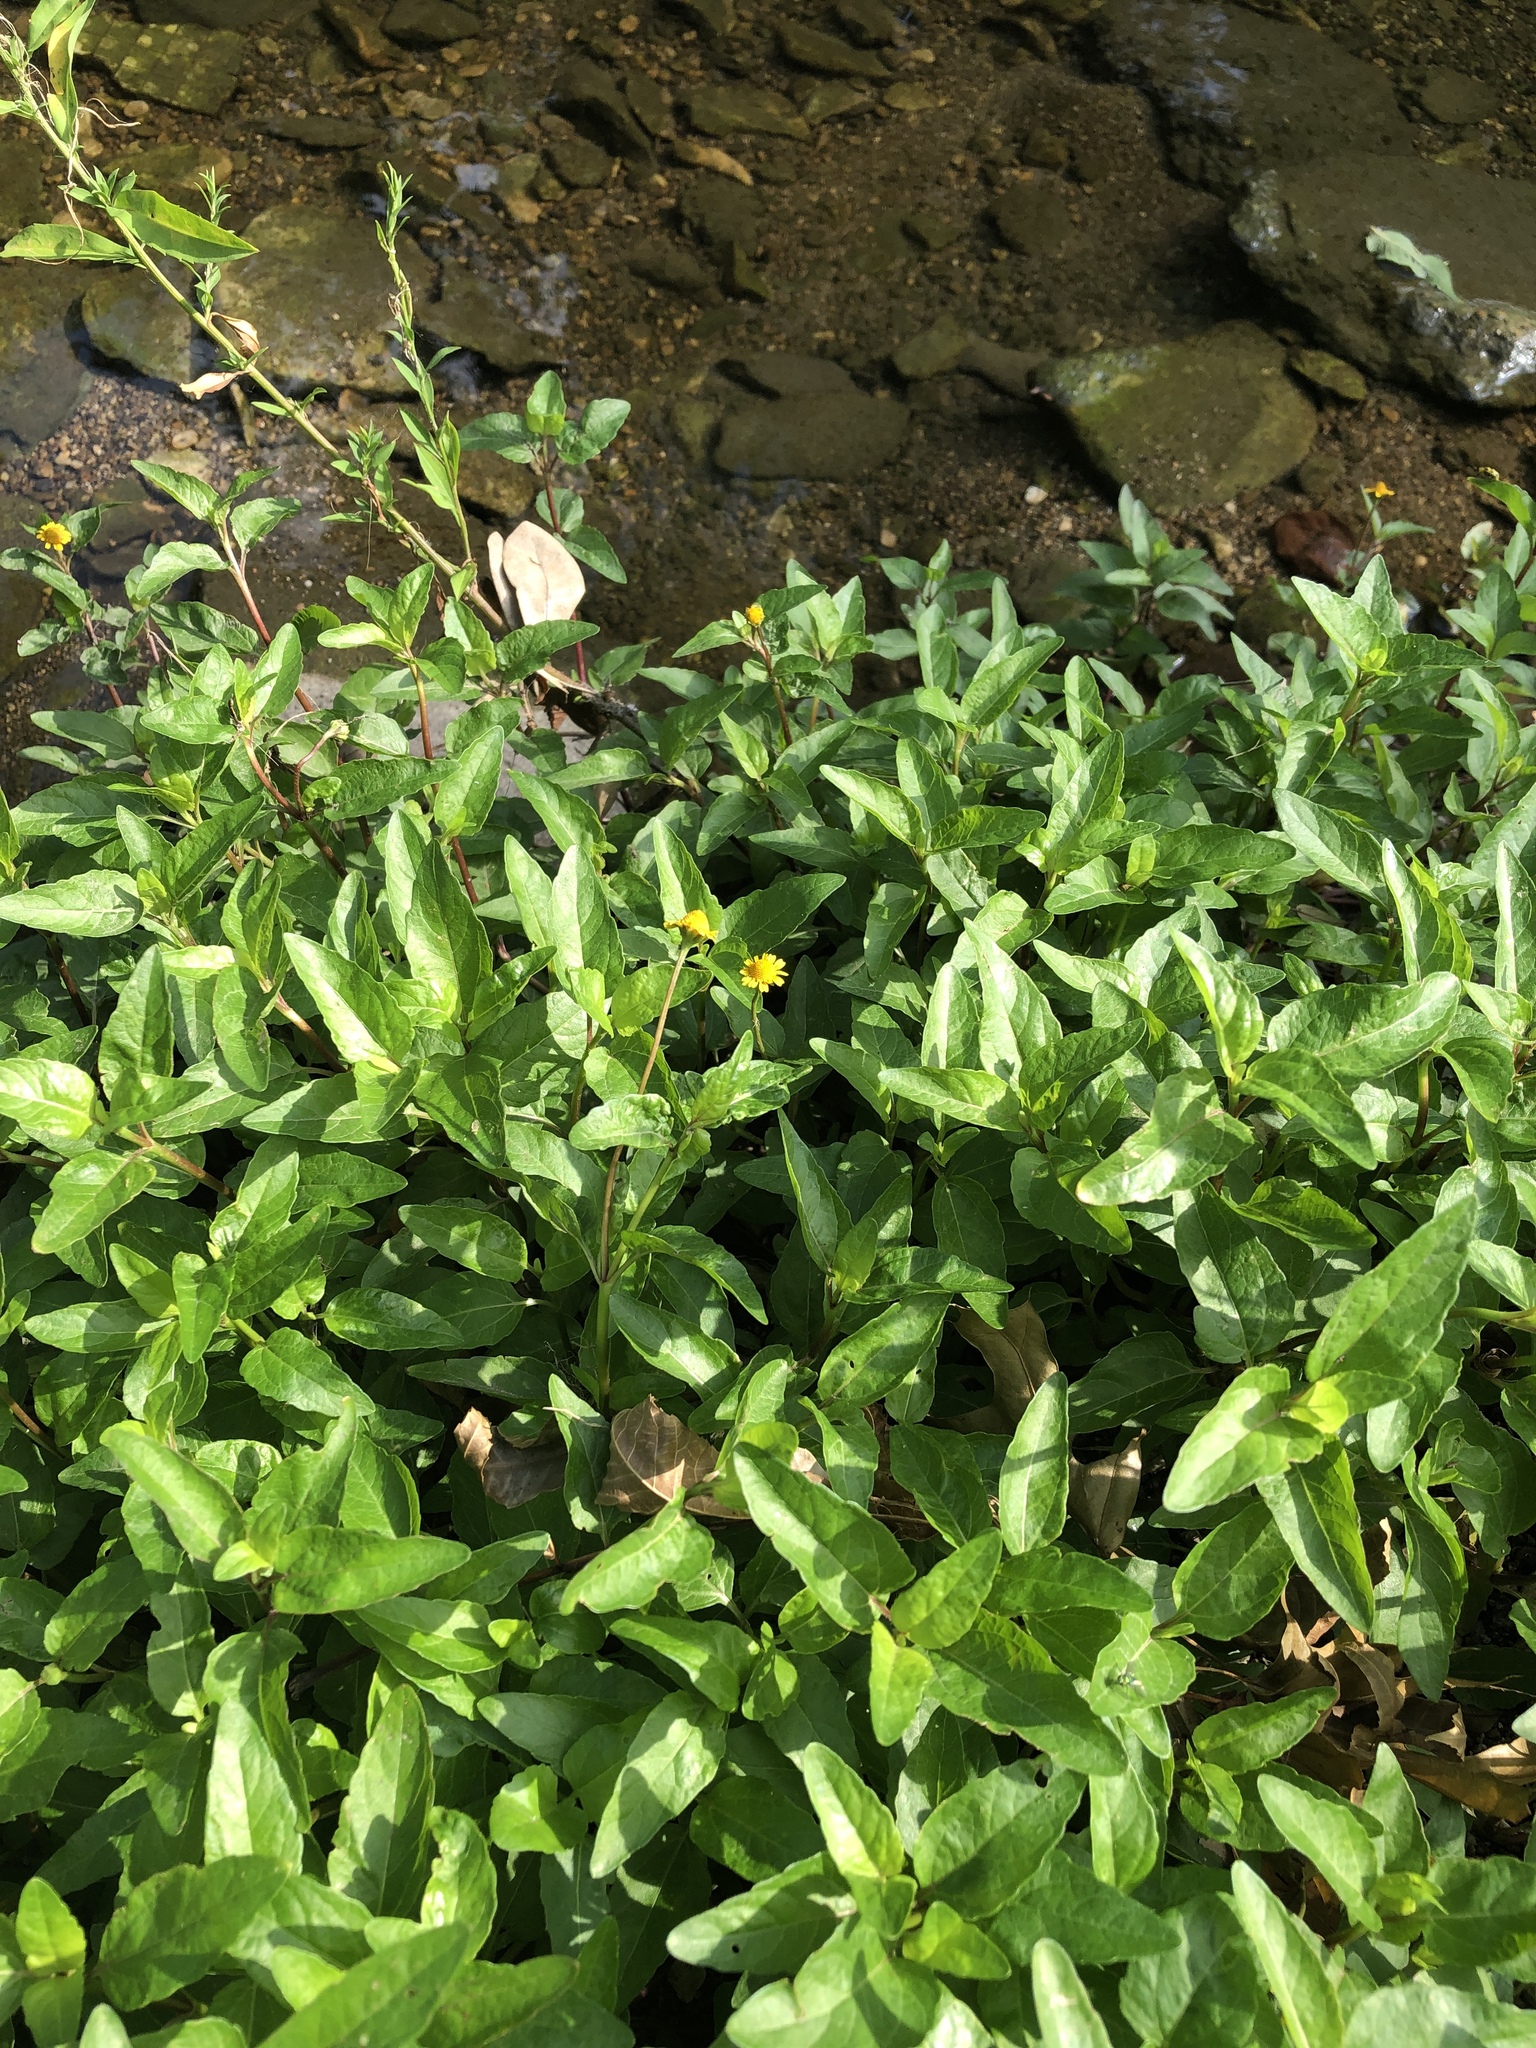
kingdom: Plantae
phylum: Tracheophyta
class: Magnoliopsida
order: Asterales
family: Asteraceae
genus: Acmella
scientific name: Acmella repens
